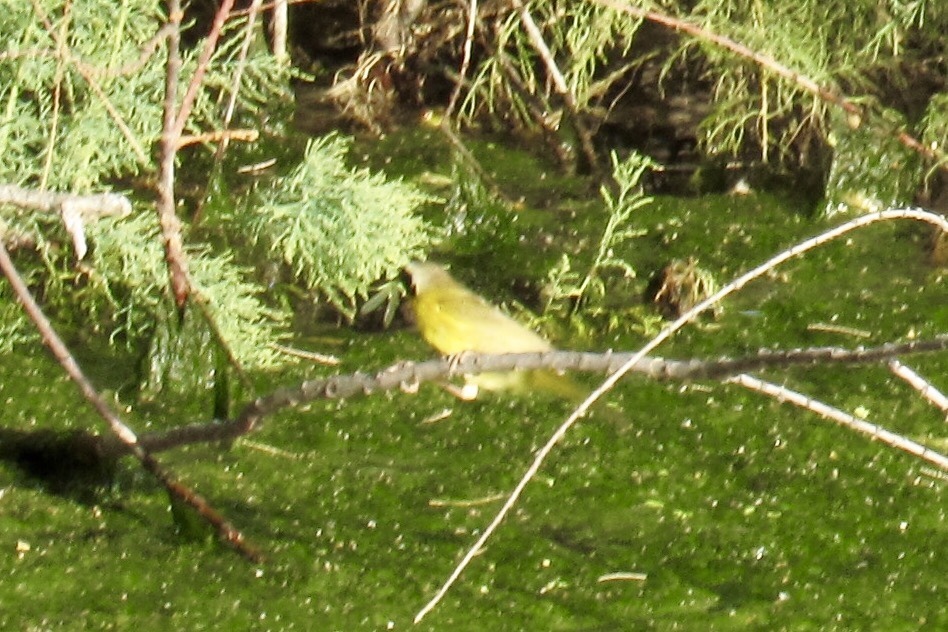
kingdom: Animalia
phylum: Chordata
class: Aves
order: Passeriformes
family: Parulidae
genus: Geothlypis
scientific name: Geothlypis trichas
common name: Common yellowthroat
